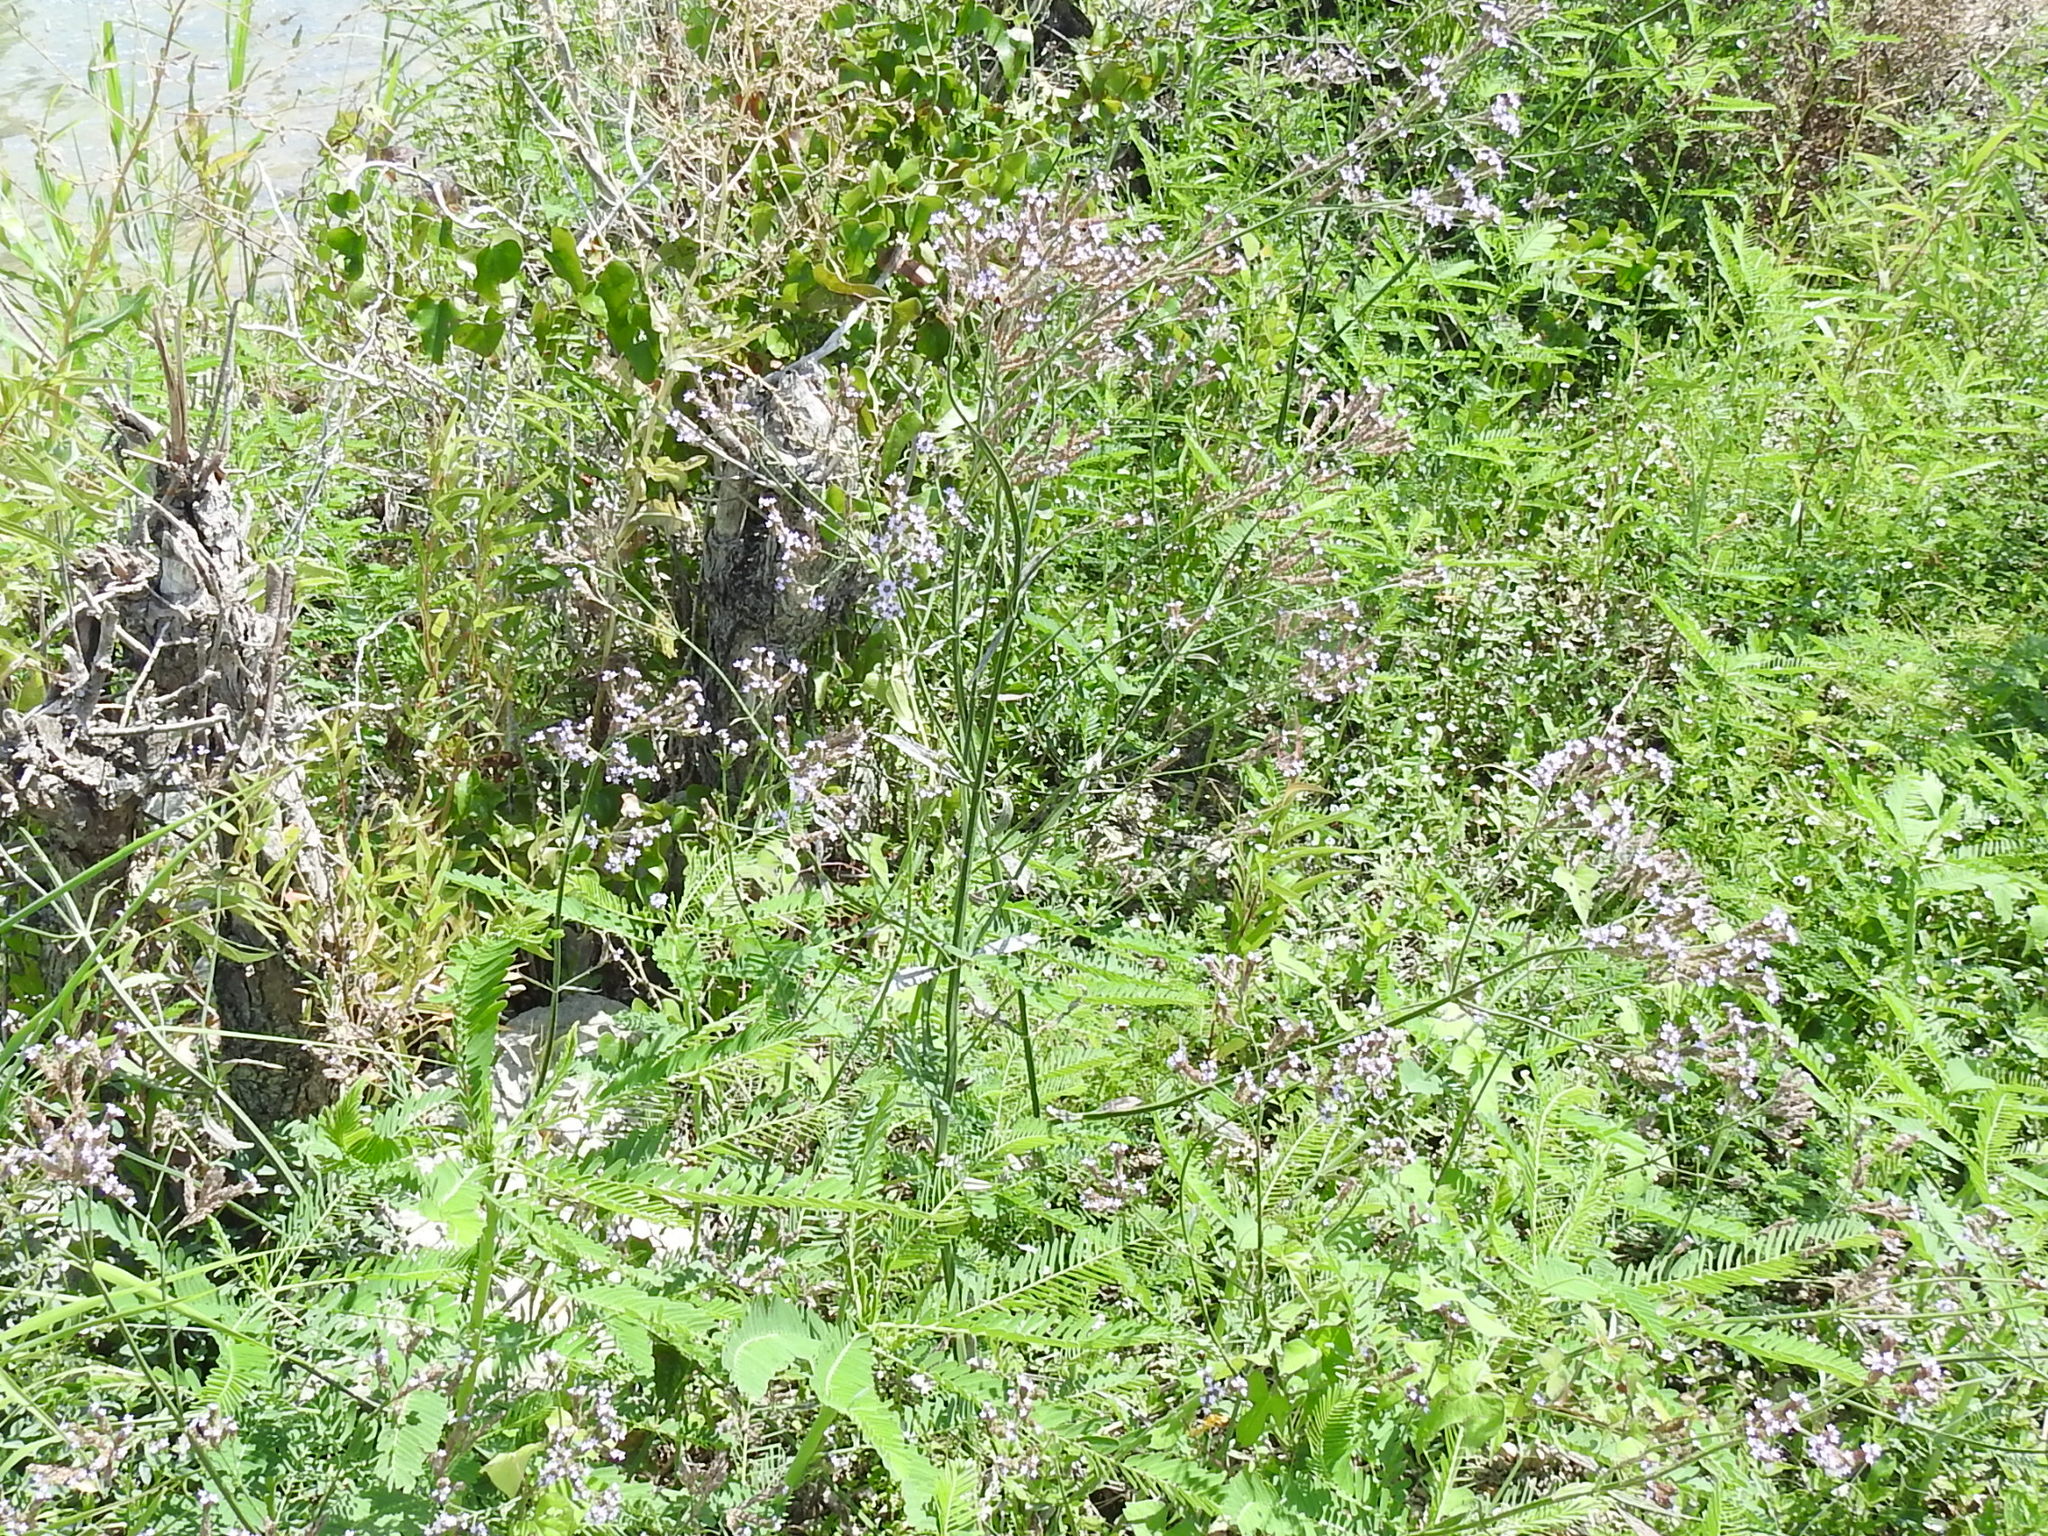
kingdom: Plantae
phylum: Tracheophyta
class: Magnoliopsida
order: Lamiales
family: Verbenaceae
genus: Verbena
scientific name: Verbena brasiliensis
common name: Brazilian vervain
